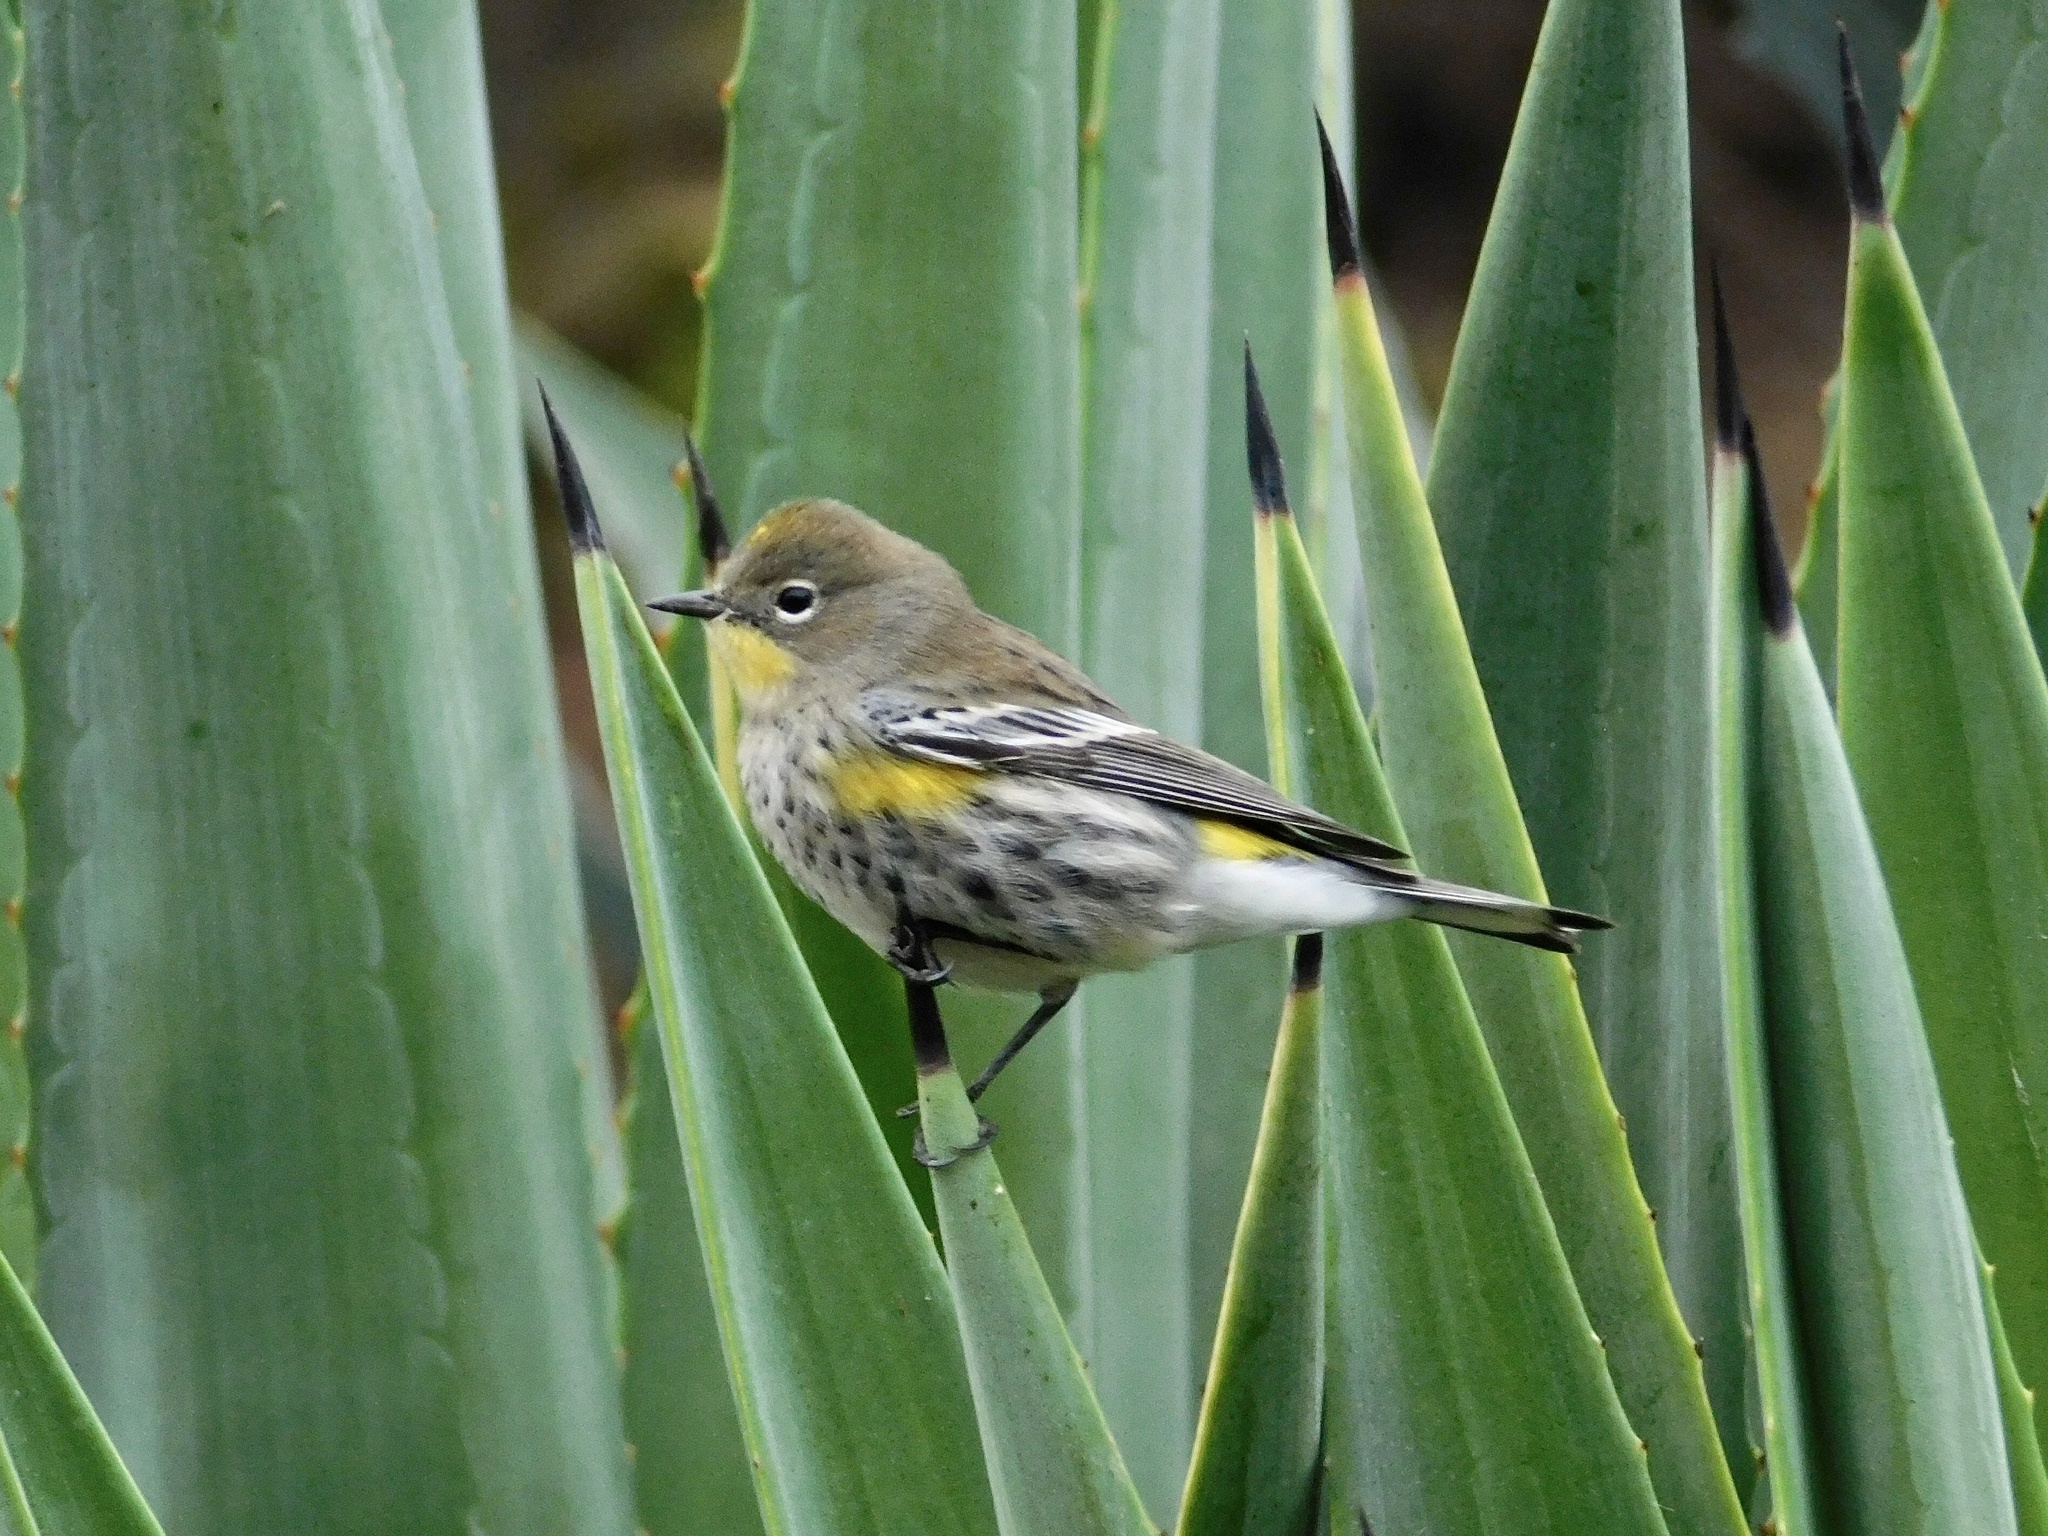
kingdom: Animalia
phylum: Chordata
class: Aves
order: Passeriformes
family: Parulidae
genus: Setophaga
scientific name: Setophaga auduboni
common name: Audubon's warbler
